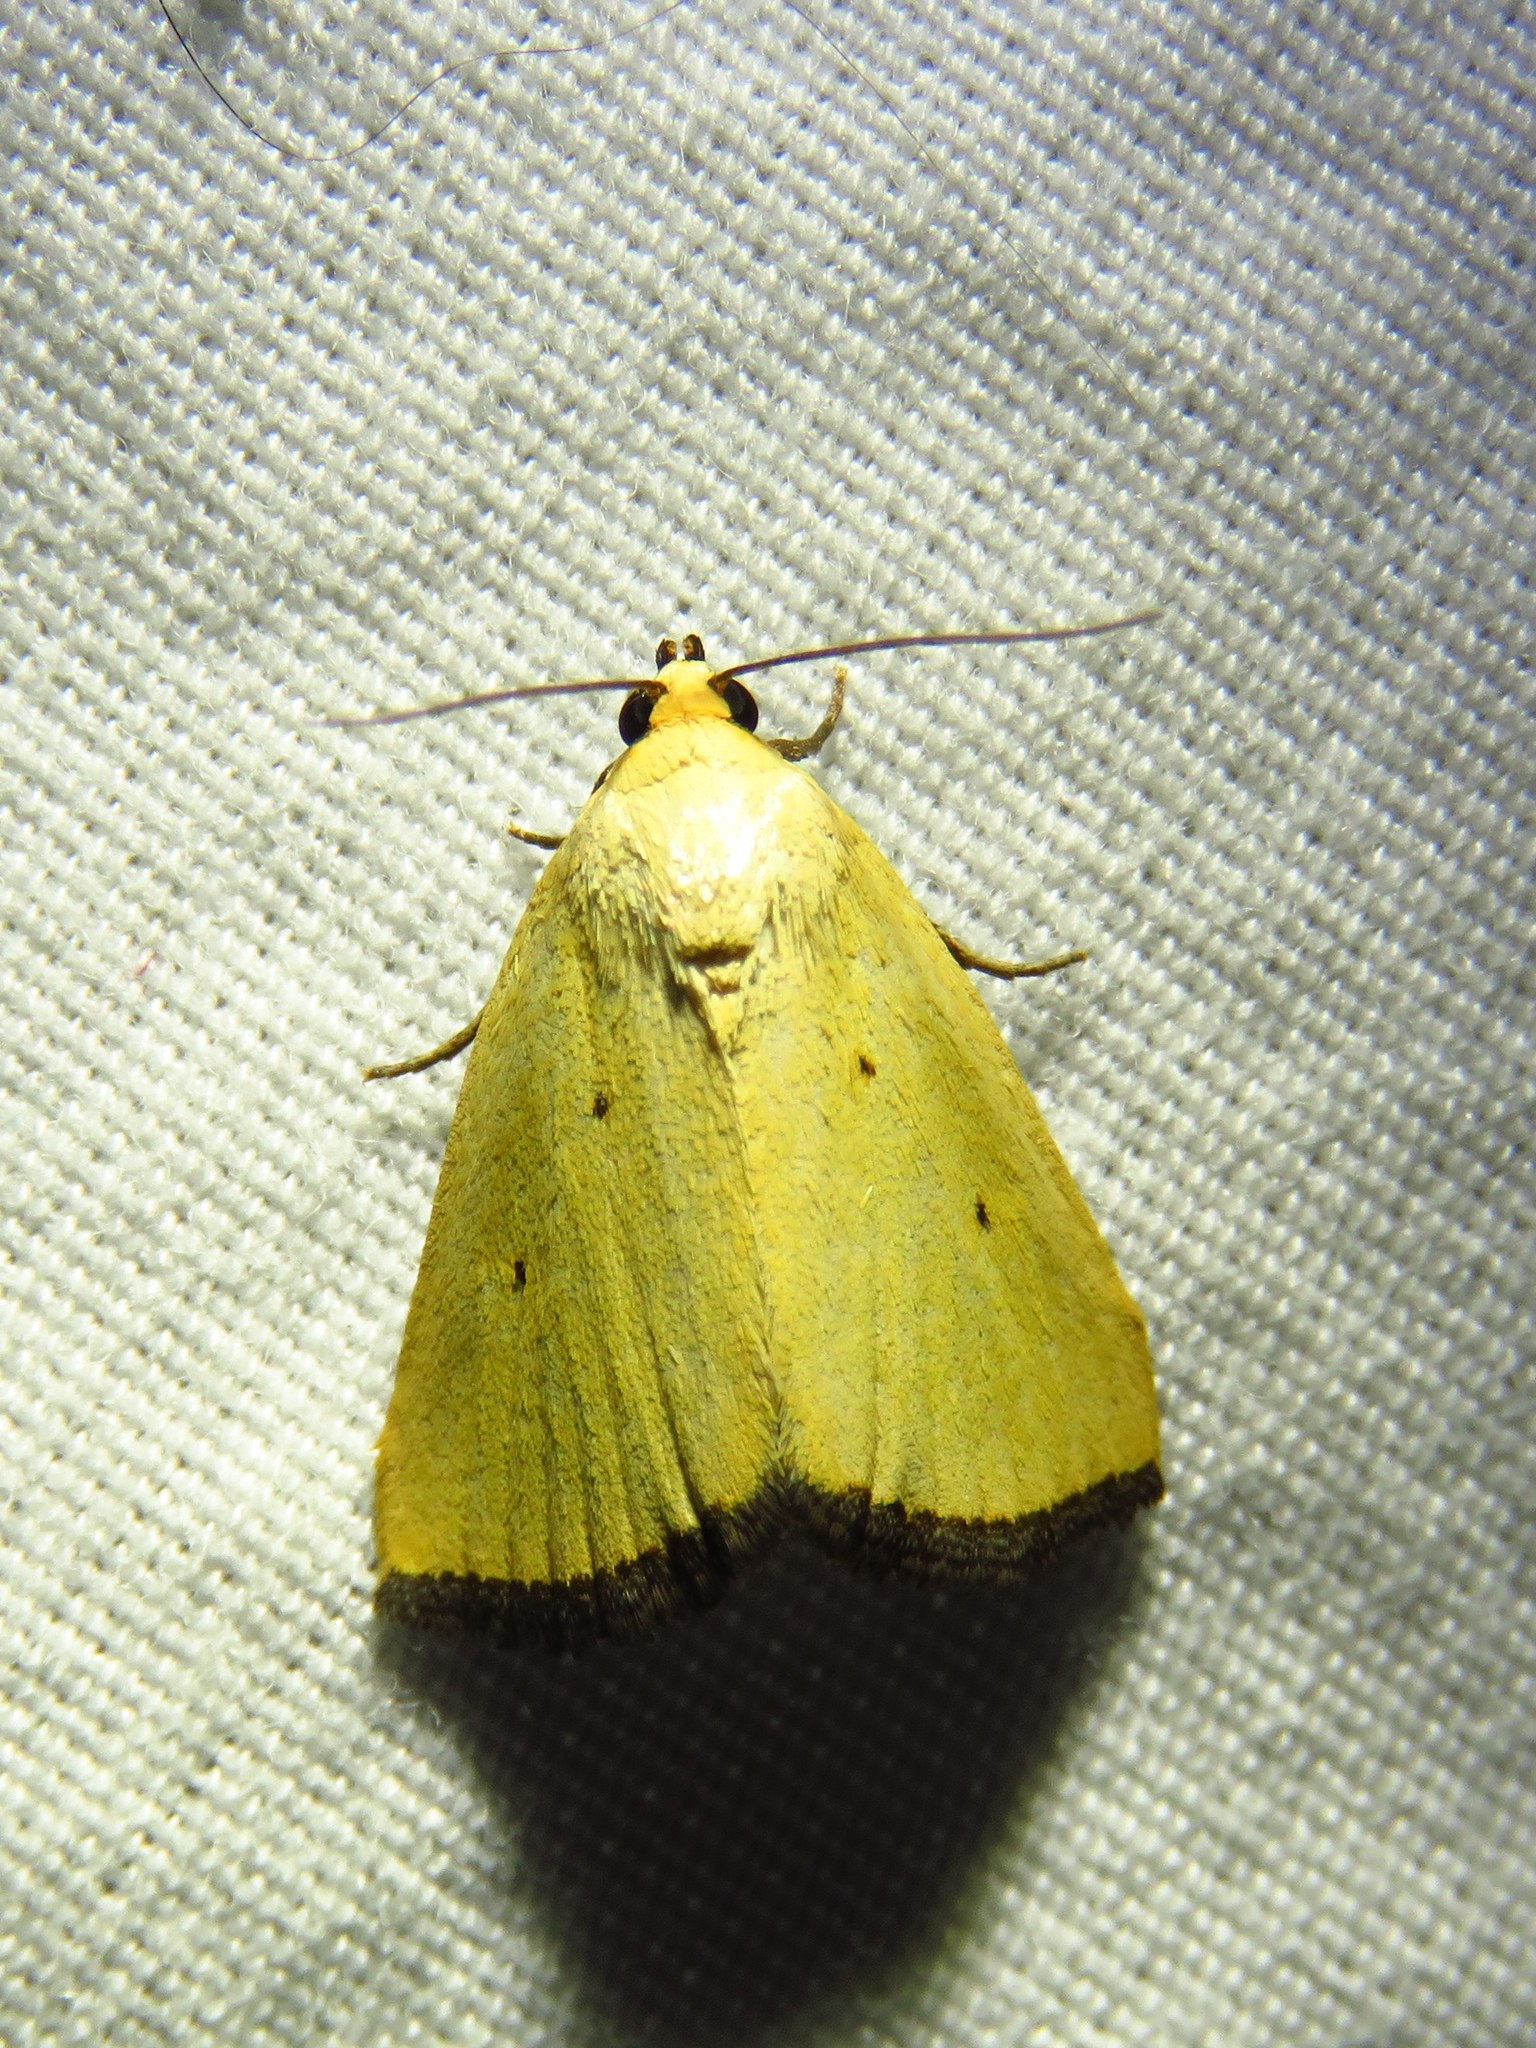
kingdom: Animalia
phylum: Arthropoda
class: Insecta
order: Lepidoptera
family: Noctuidae
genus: Marimatha
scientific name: Marimatha nigrofimbria
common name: Black-bordered lemon moth
